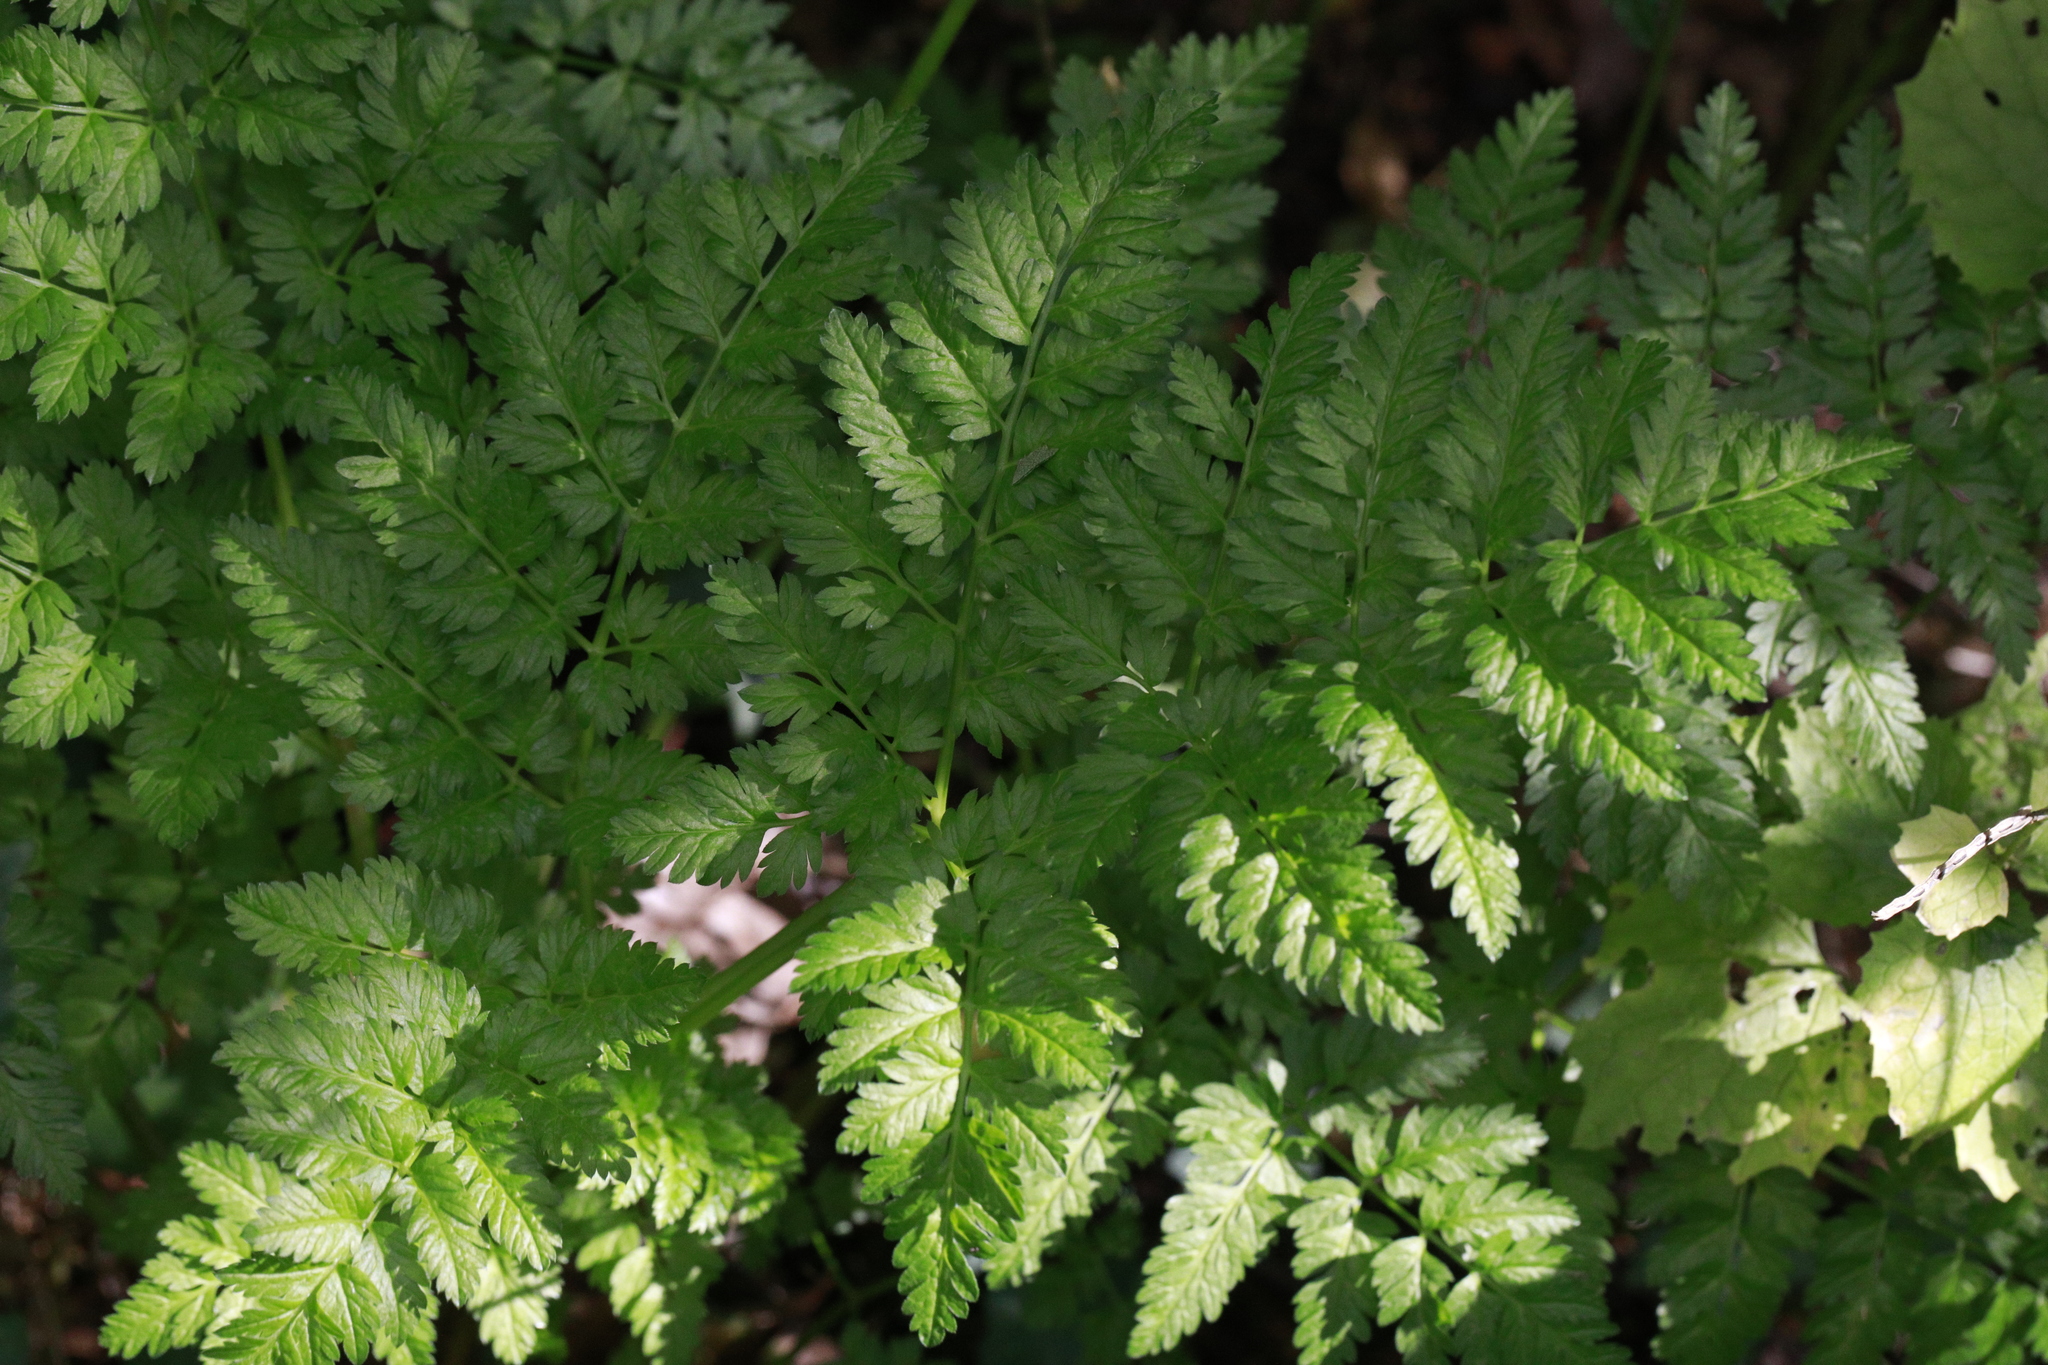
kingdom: Plantae
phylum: Tracheophyta
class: Magnoliopsida
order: Apiales
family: Apiaceae
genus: Anthriscus
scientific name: Anthriscus sylvestris
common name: Cow parsley
